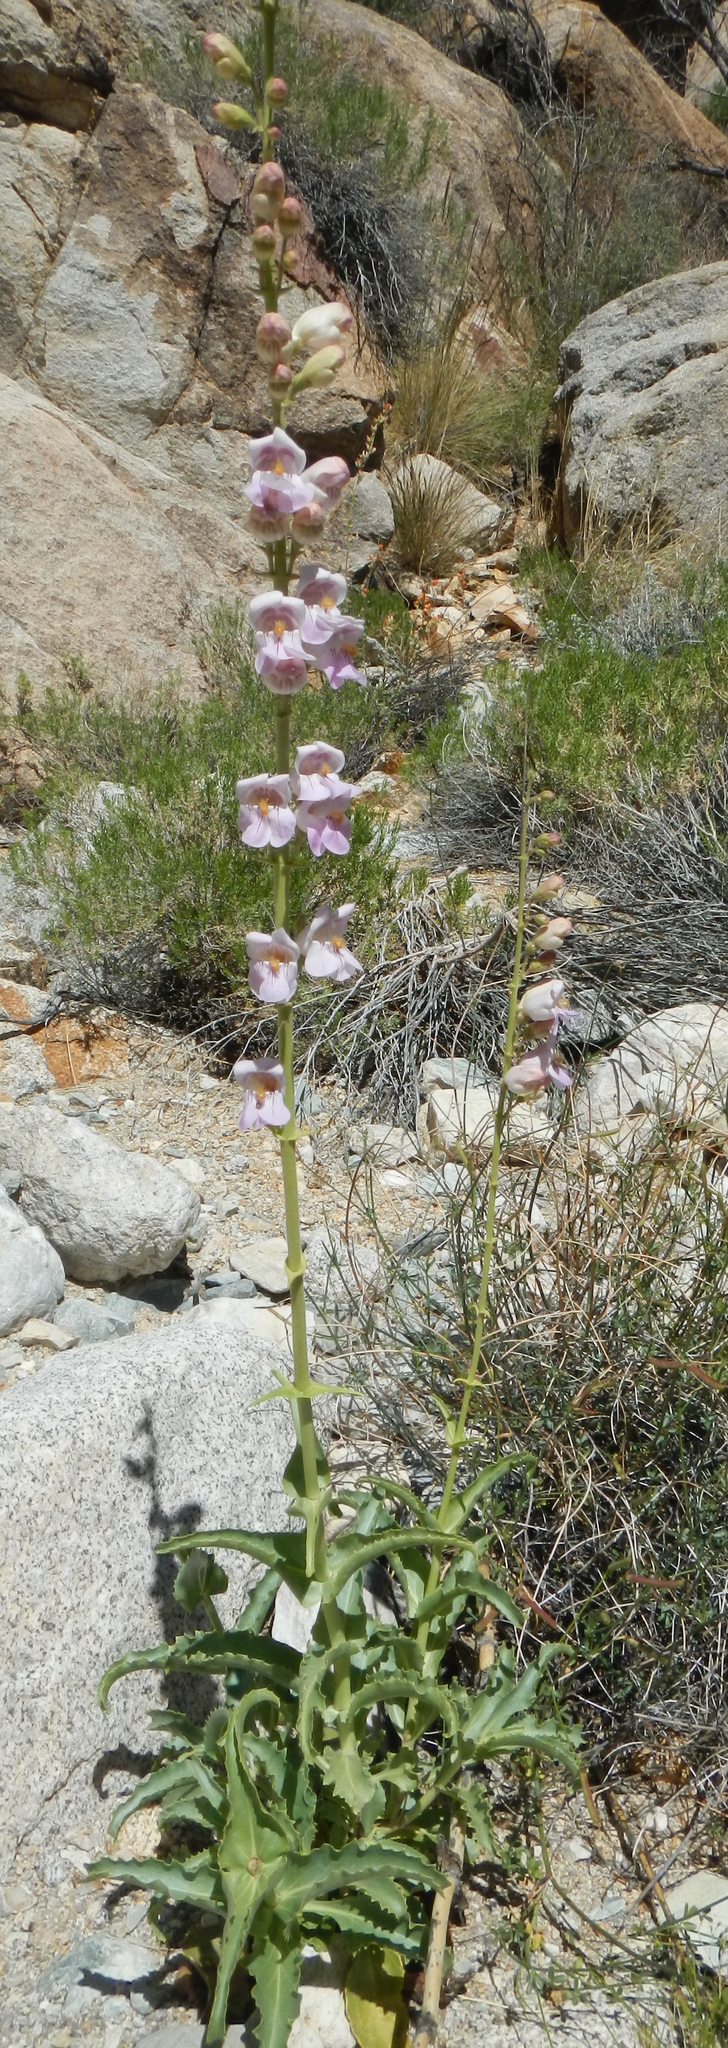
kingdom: Plantae
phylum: Tracheophyta
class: Magnoliopsida
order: Lamiales
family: Plantaginaceae
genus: Penstemon
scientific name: Penstemon palmeri
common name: Palmer penstemon
